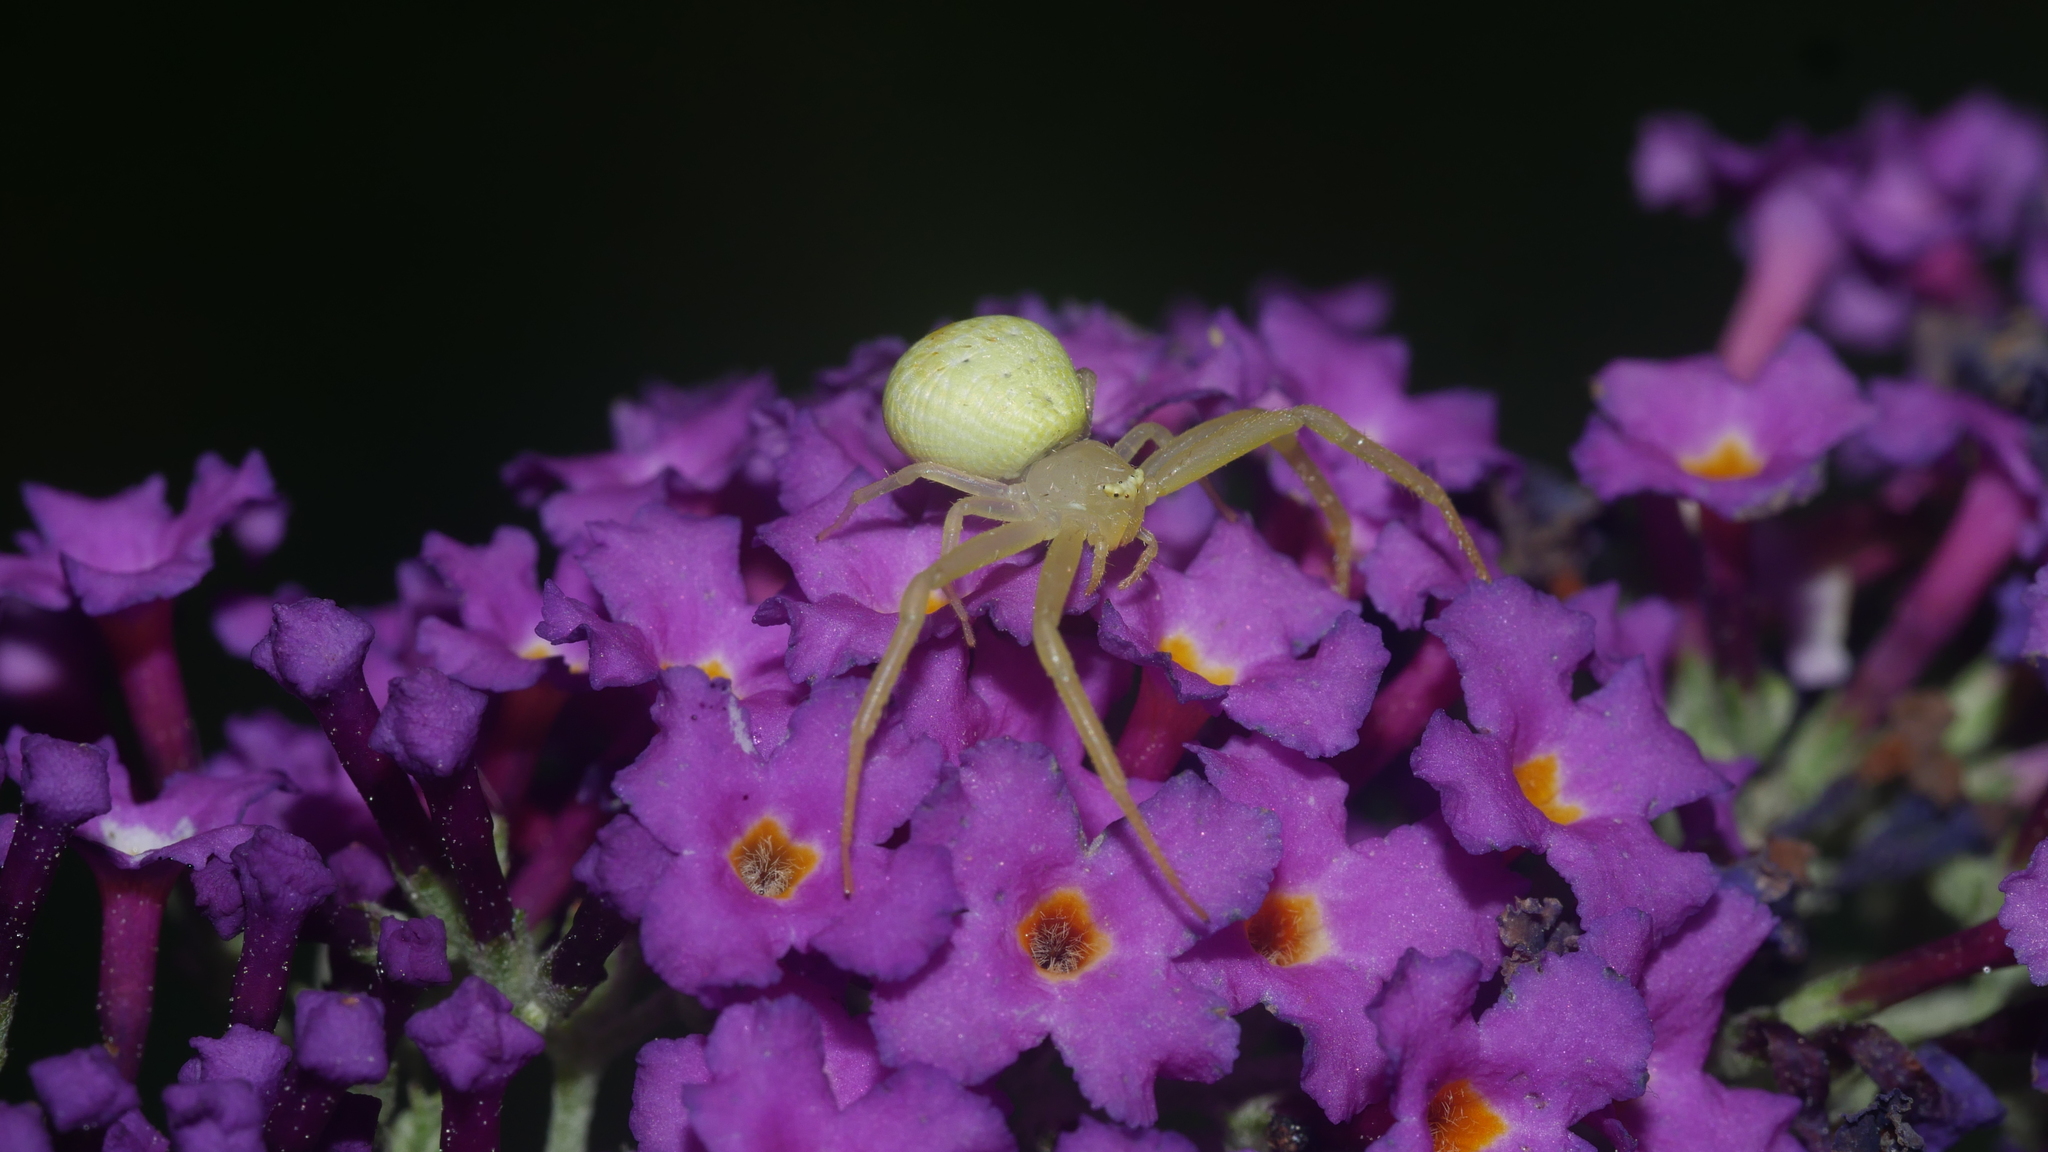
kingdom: Animalia
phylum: Arthropoda
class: Arachnida
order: Araneae
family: Thomisidae
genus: Misumessus
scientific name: Misumessus oblongus
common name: American green crab spider
